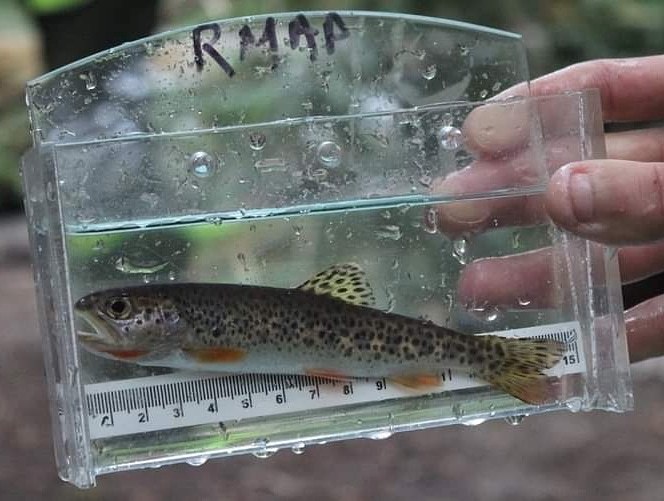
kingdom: Animalia
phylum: Chordata
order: Salmoniformes
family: Salmonidae
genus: Oncorhynchus
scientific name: Oncorhynchus clarkii
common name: Cutthroat trout
